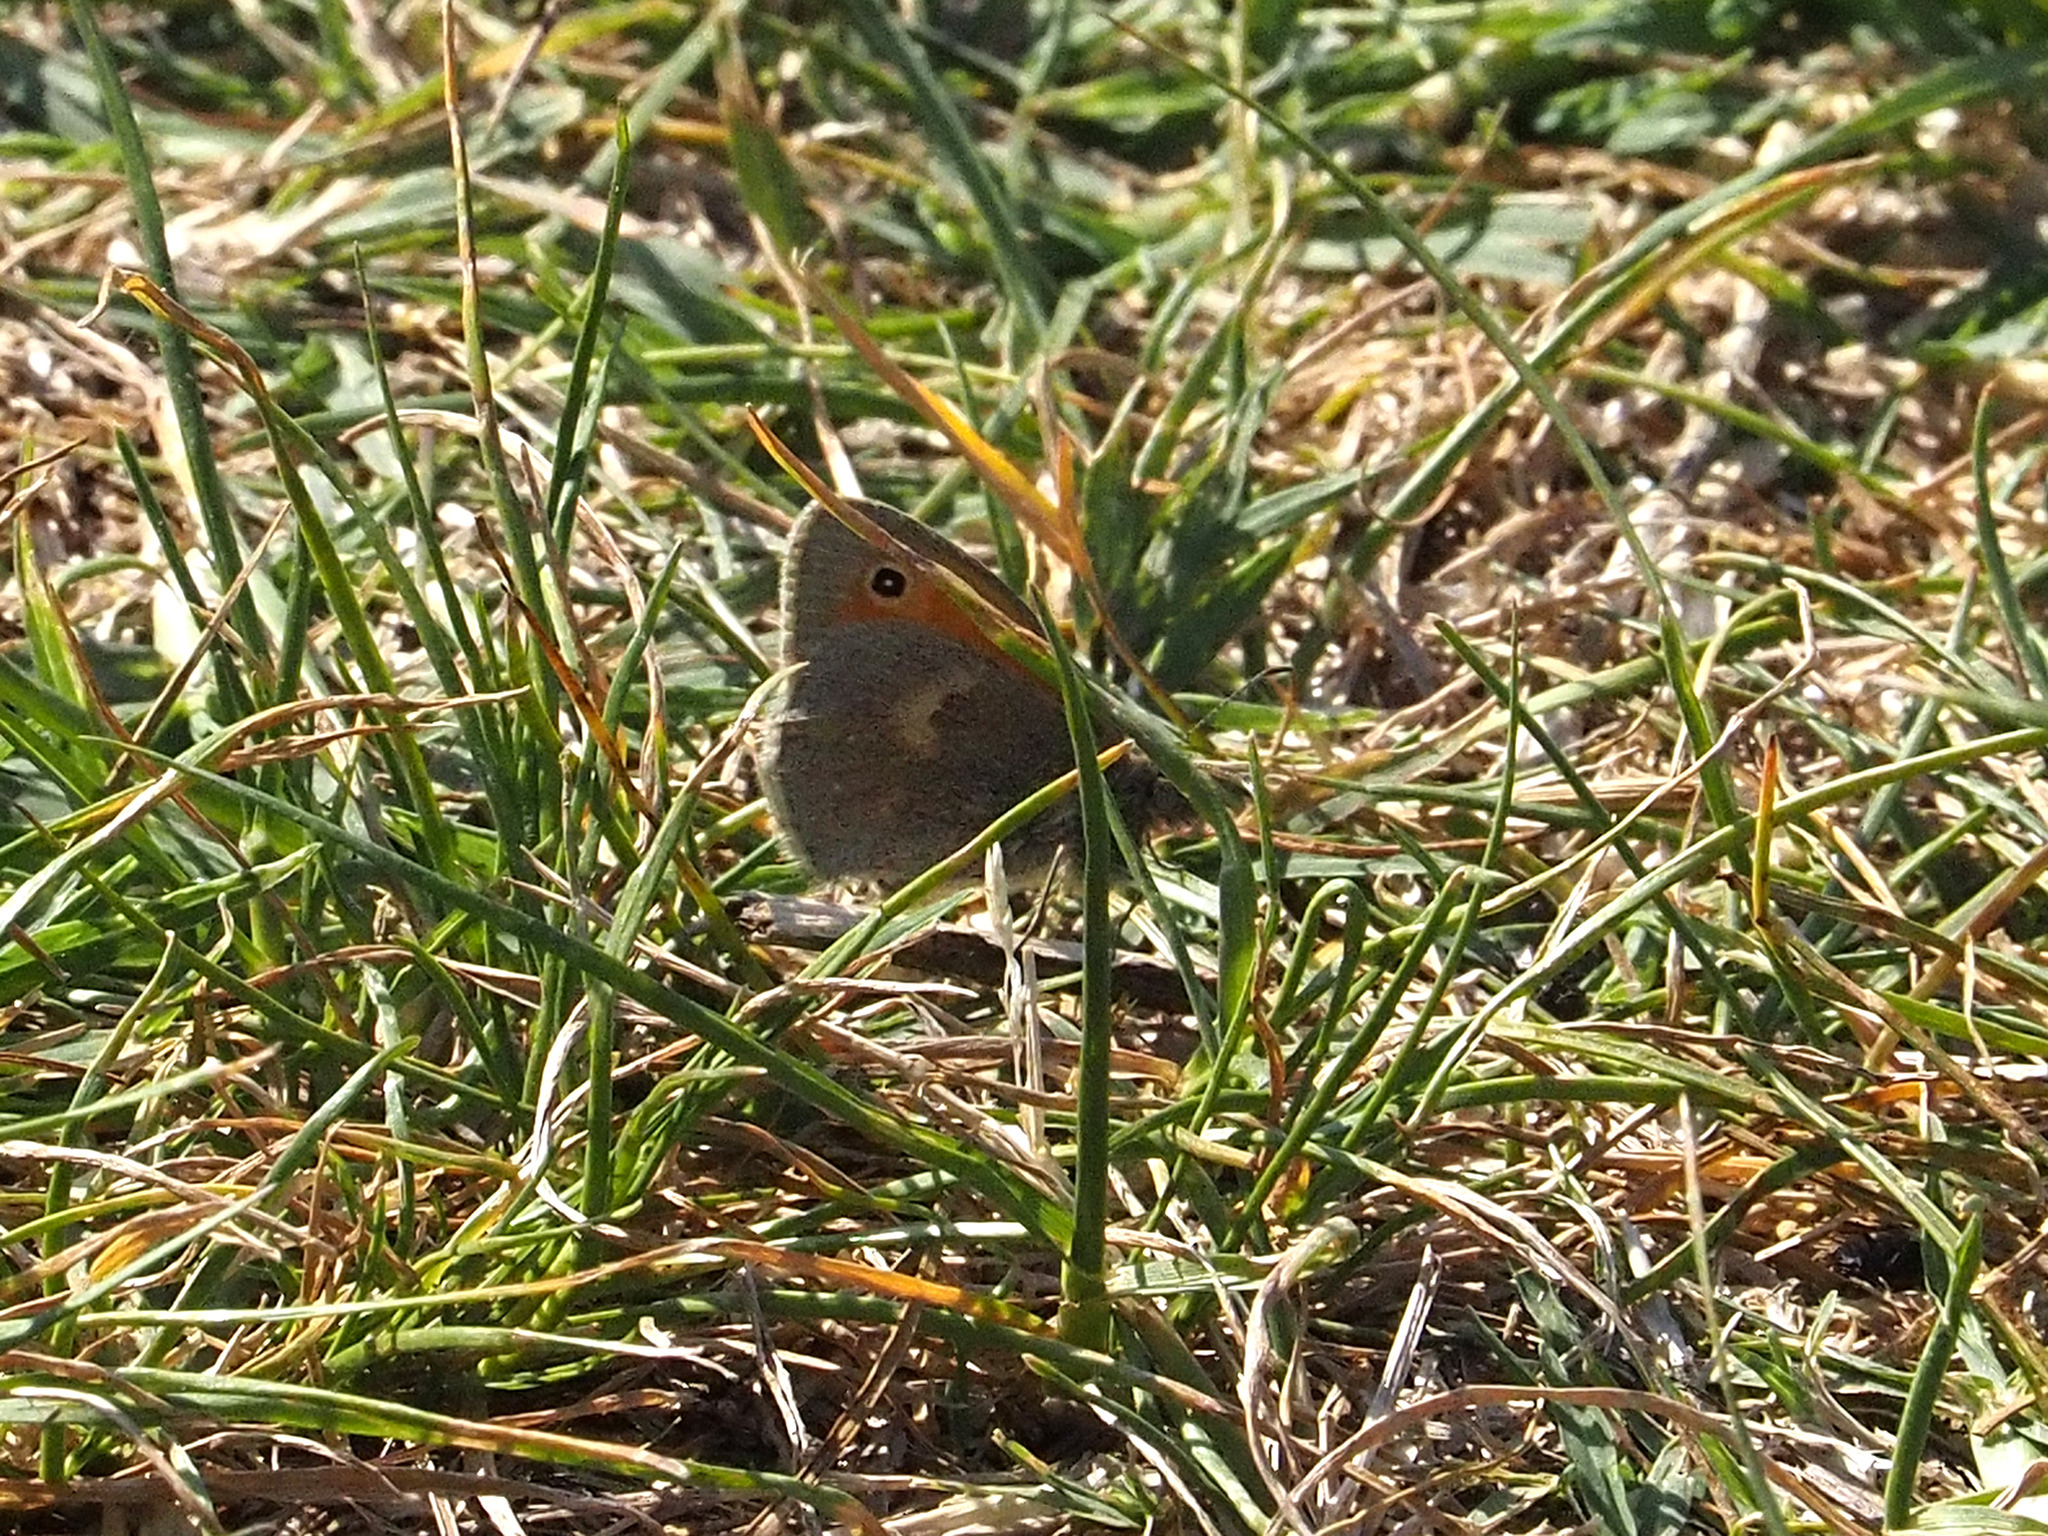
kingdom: Animalia
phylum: Arthropoda
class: Insecta
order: Lepidoptera
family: Nymphalidae
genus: Coenonympha
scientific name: Coenonympha pamphilus
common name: Small heath
